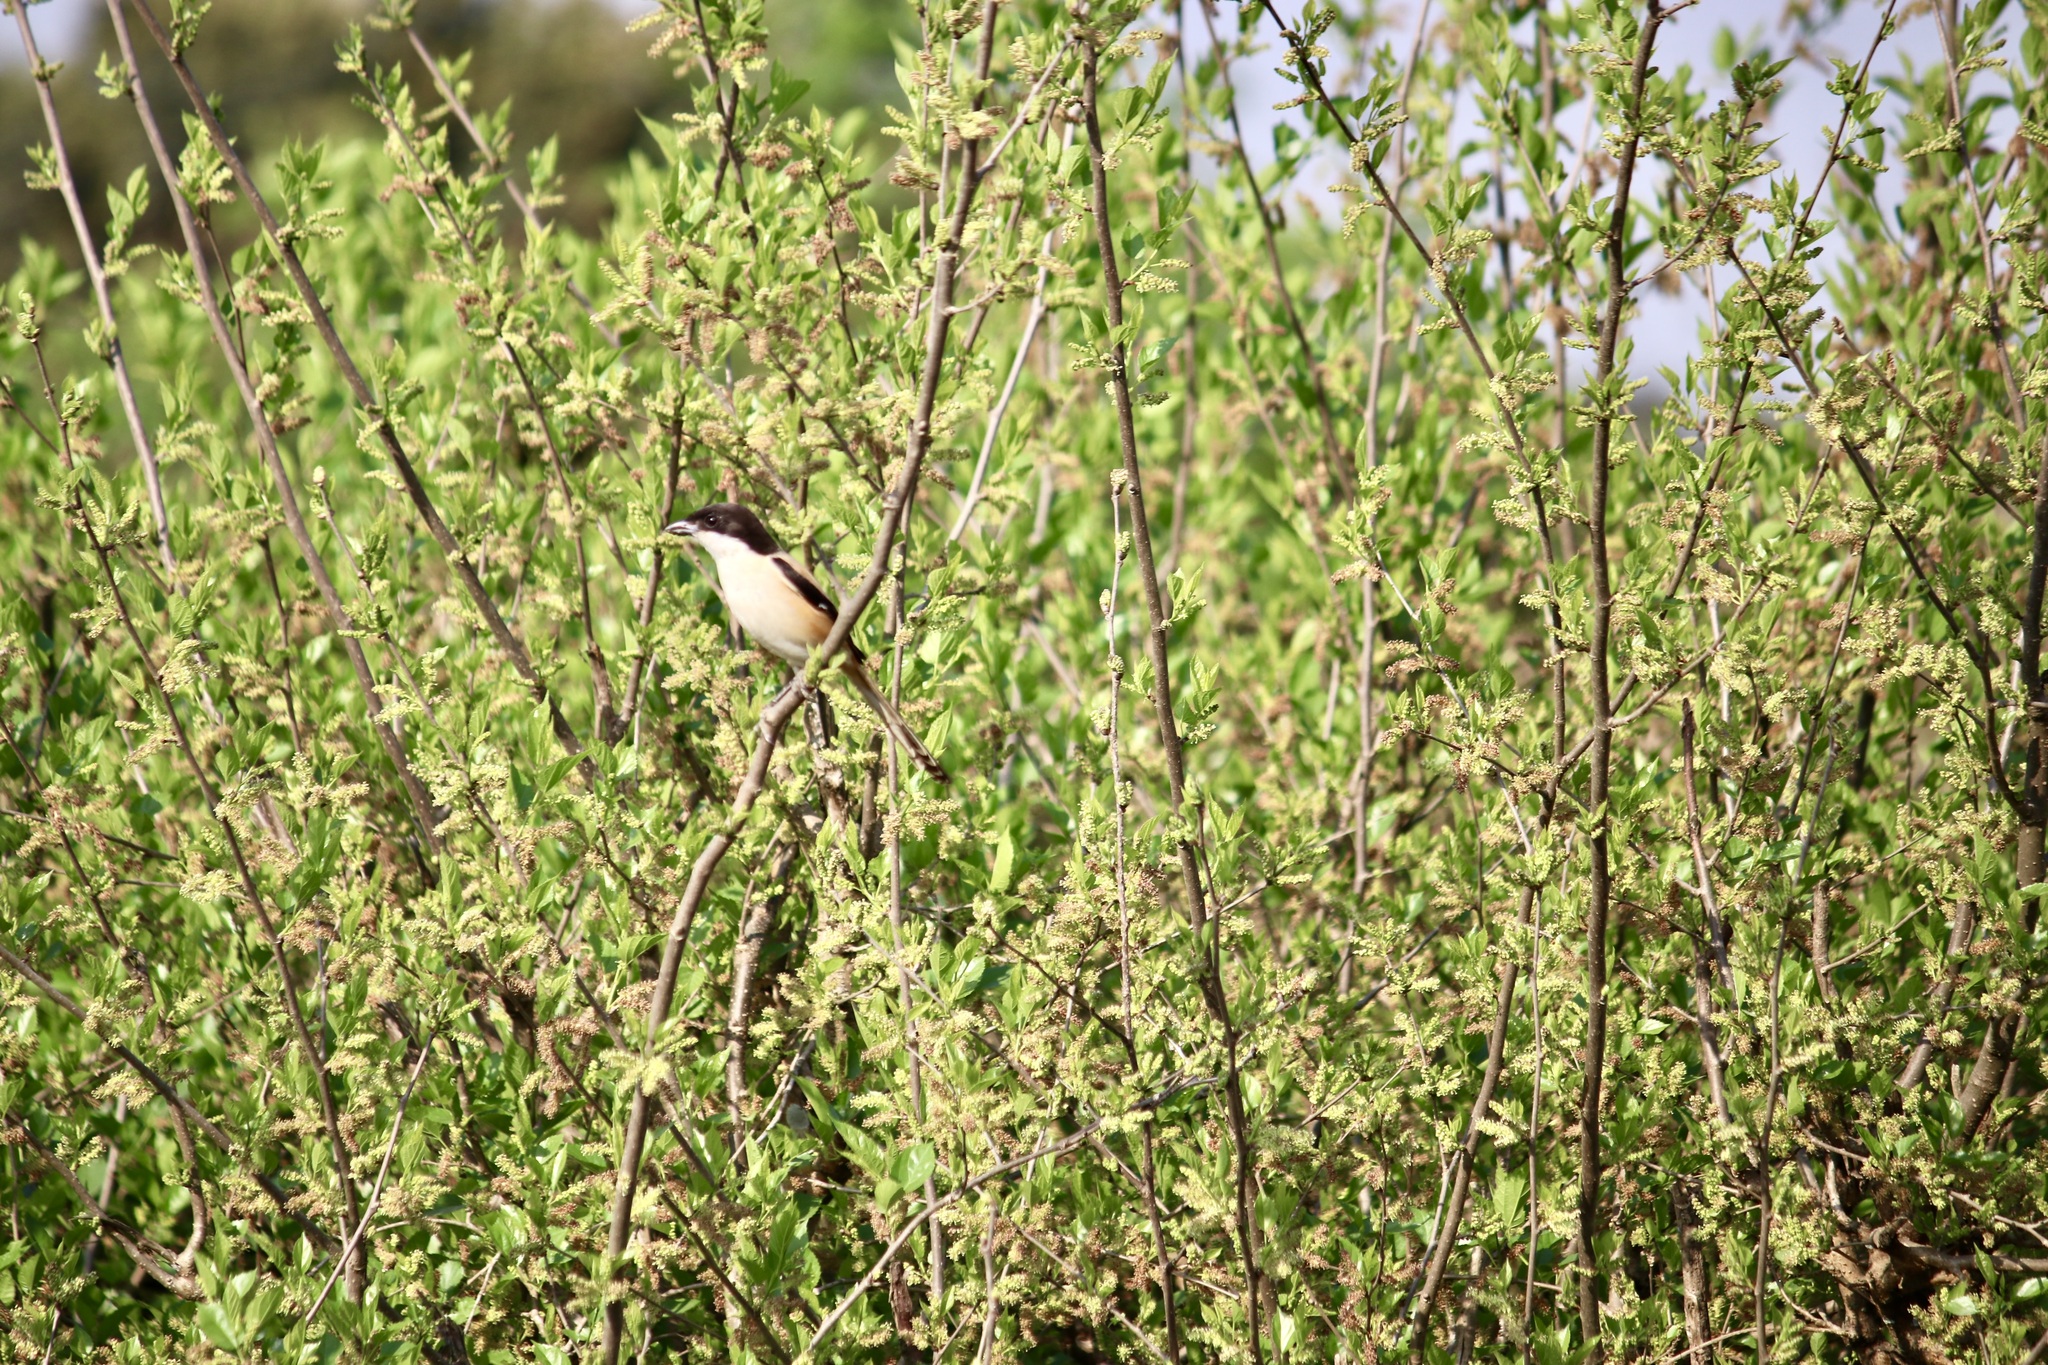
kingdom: Animalia
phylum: Chordata
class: Aves
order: Passeriformes
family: Laniidae
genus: Lanius
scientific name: Lanius schach
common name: Long-tailed shrike
